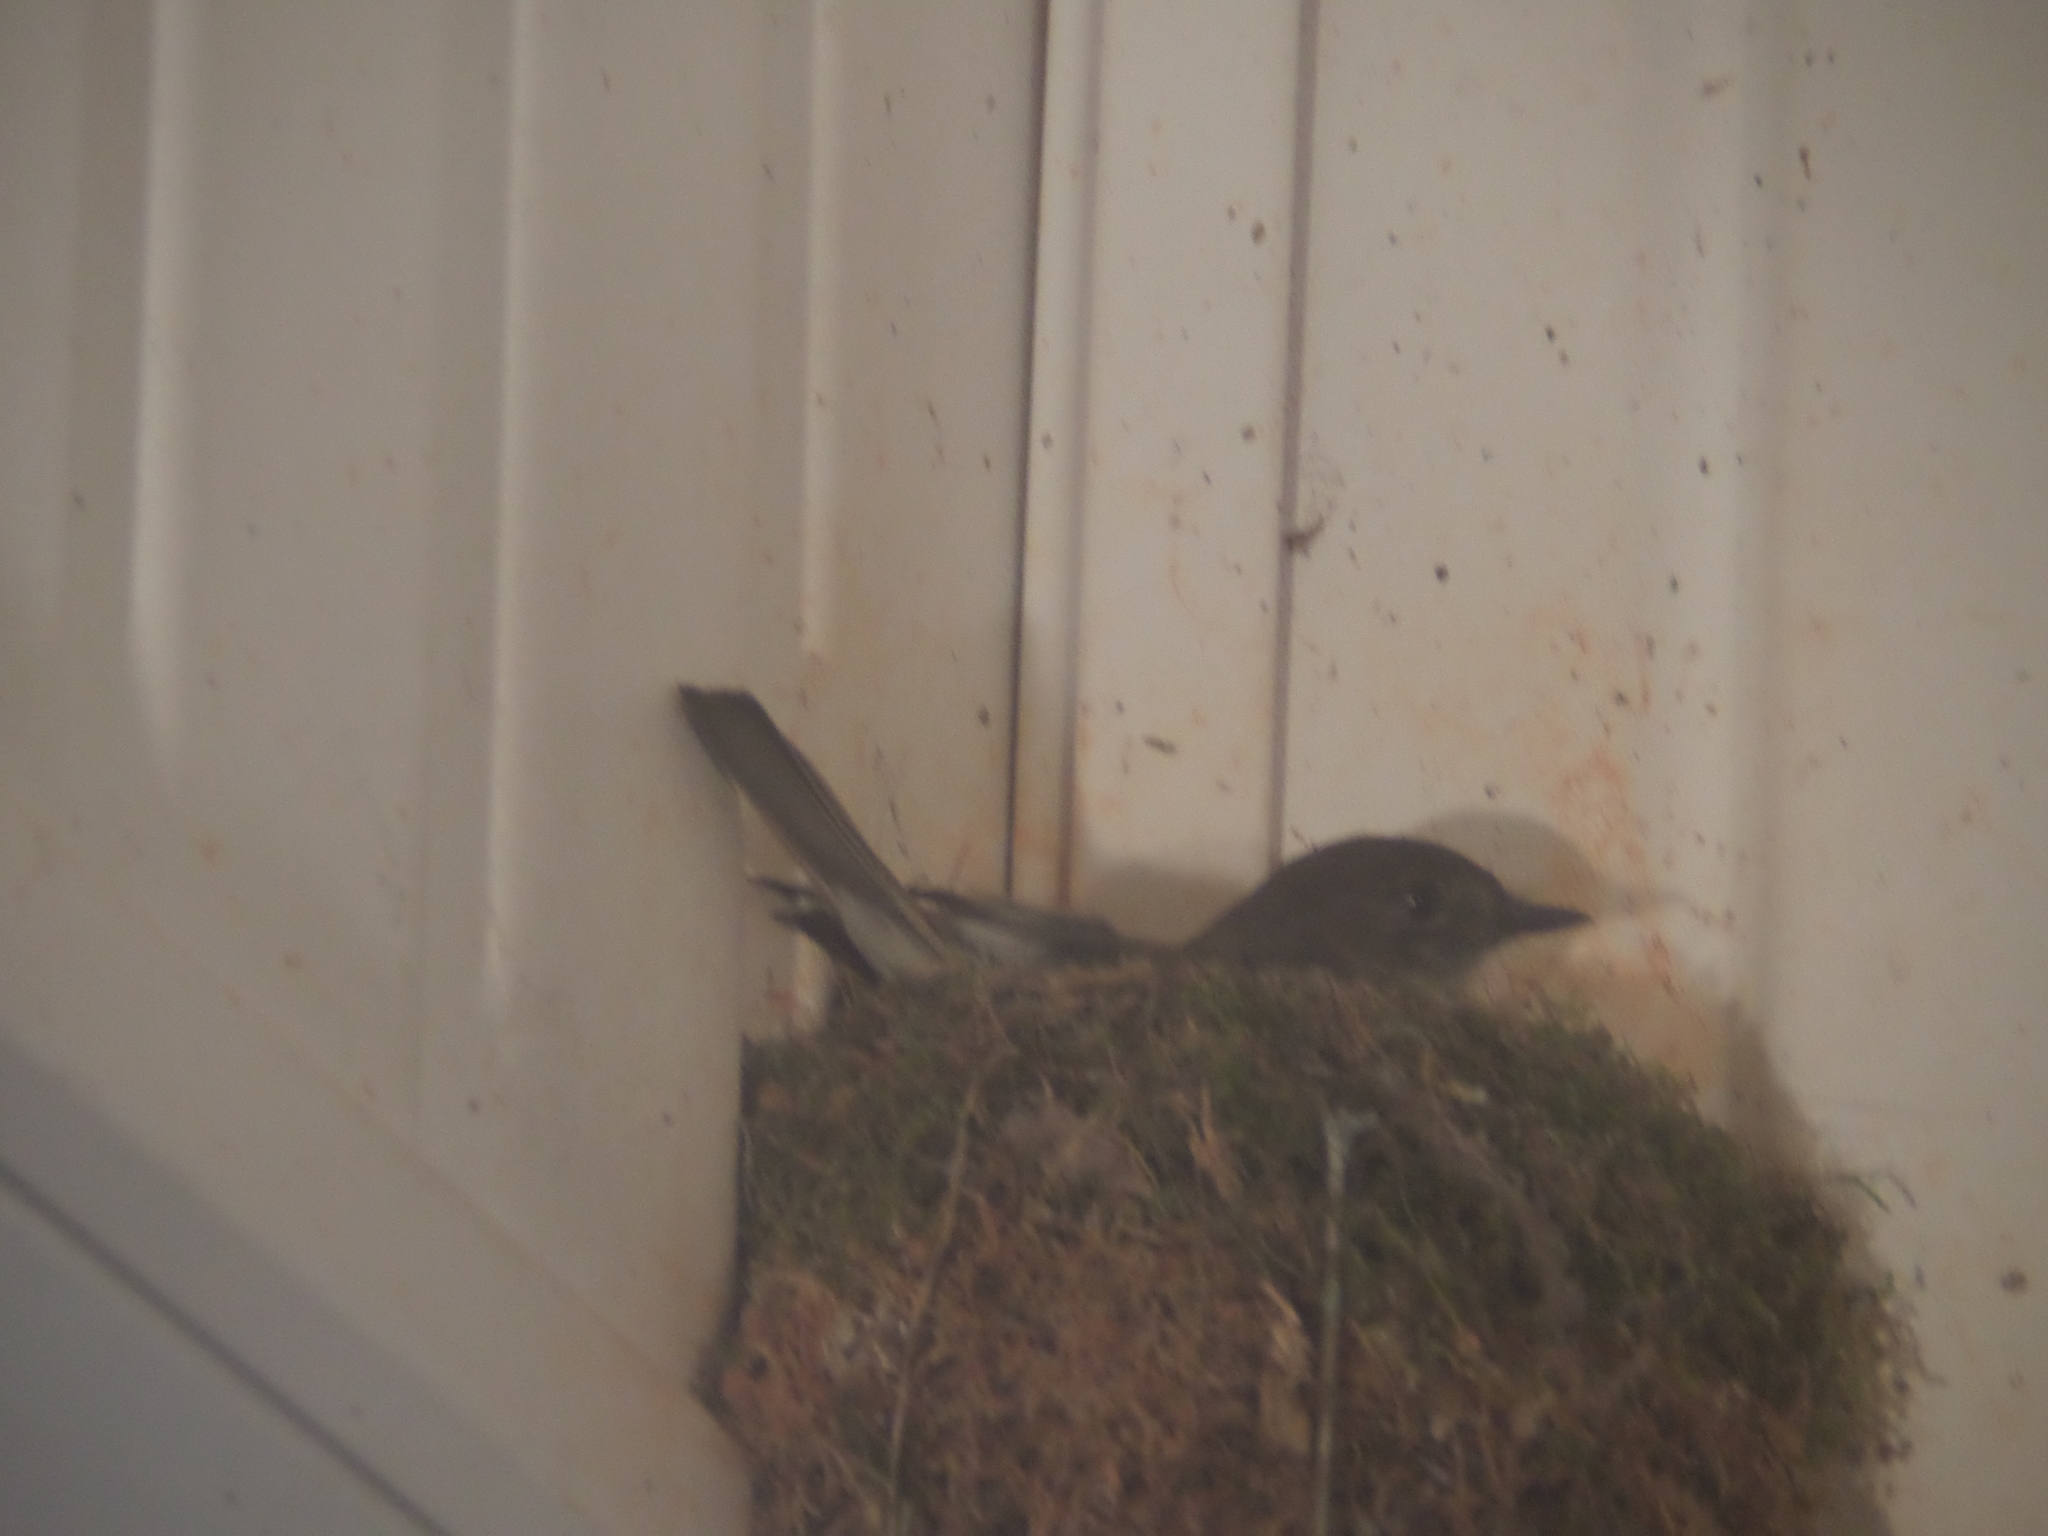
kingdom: Animalia
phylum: Chordata
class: Aves
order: Passeriformes
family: Tyrannidae
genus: Sayornis
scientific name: Sayornis phoebe
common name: Eastern phoebe
